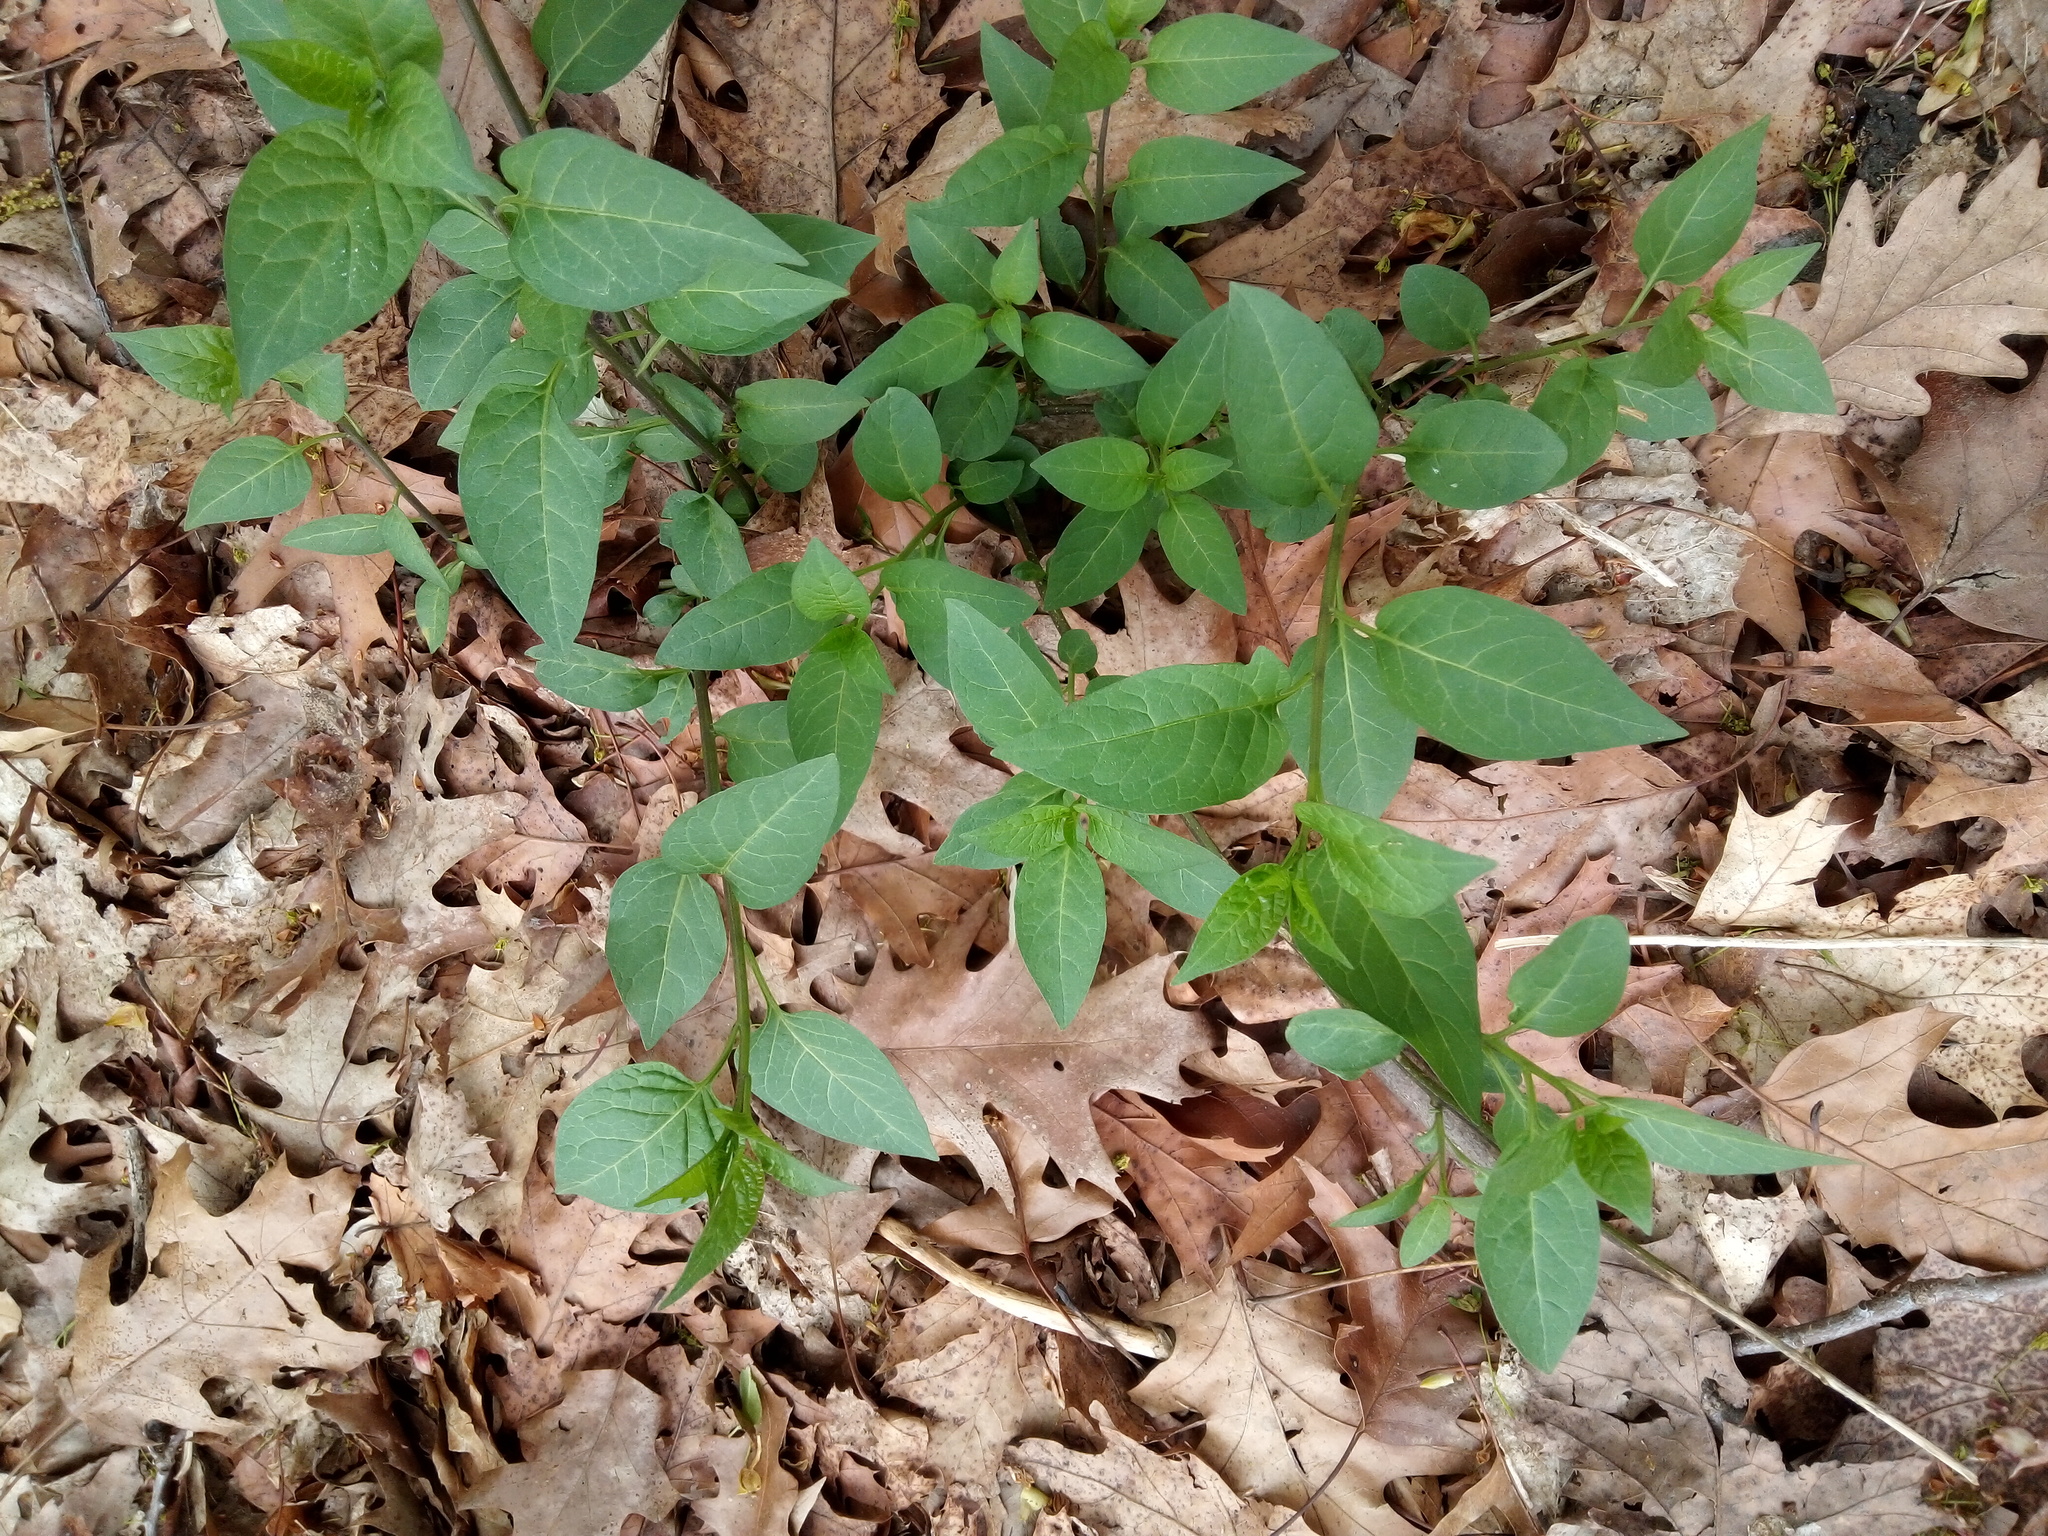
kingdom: Plantae
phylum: Tracheophyta
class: Magnoliopsida
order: Solanales
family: Solanaceae
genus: Solanum
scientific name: Solanum dulcamara
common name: Climbing nightshade
